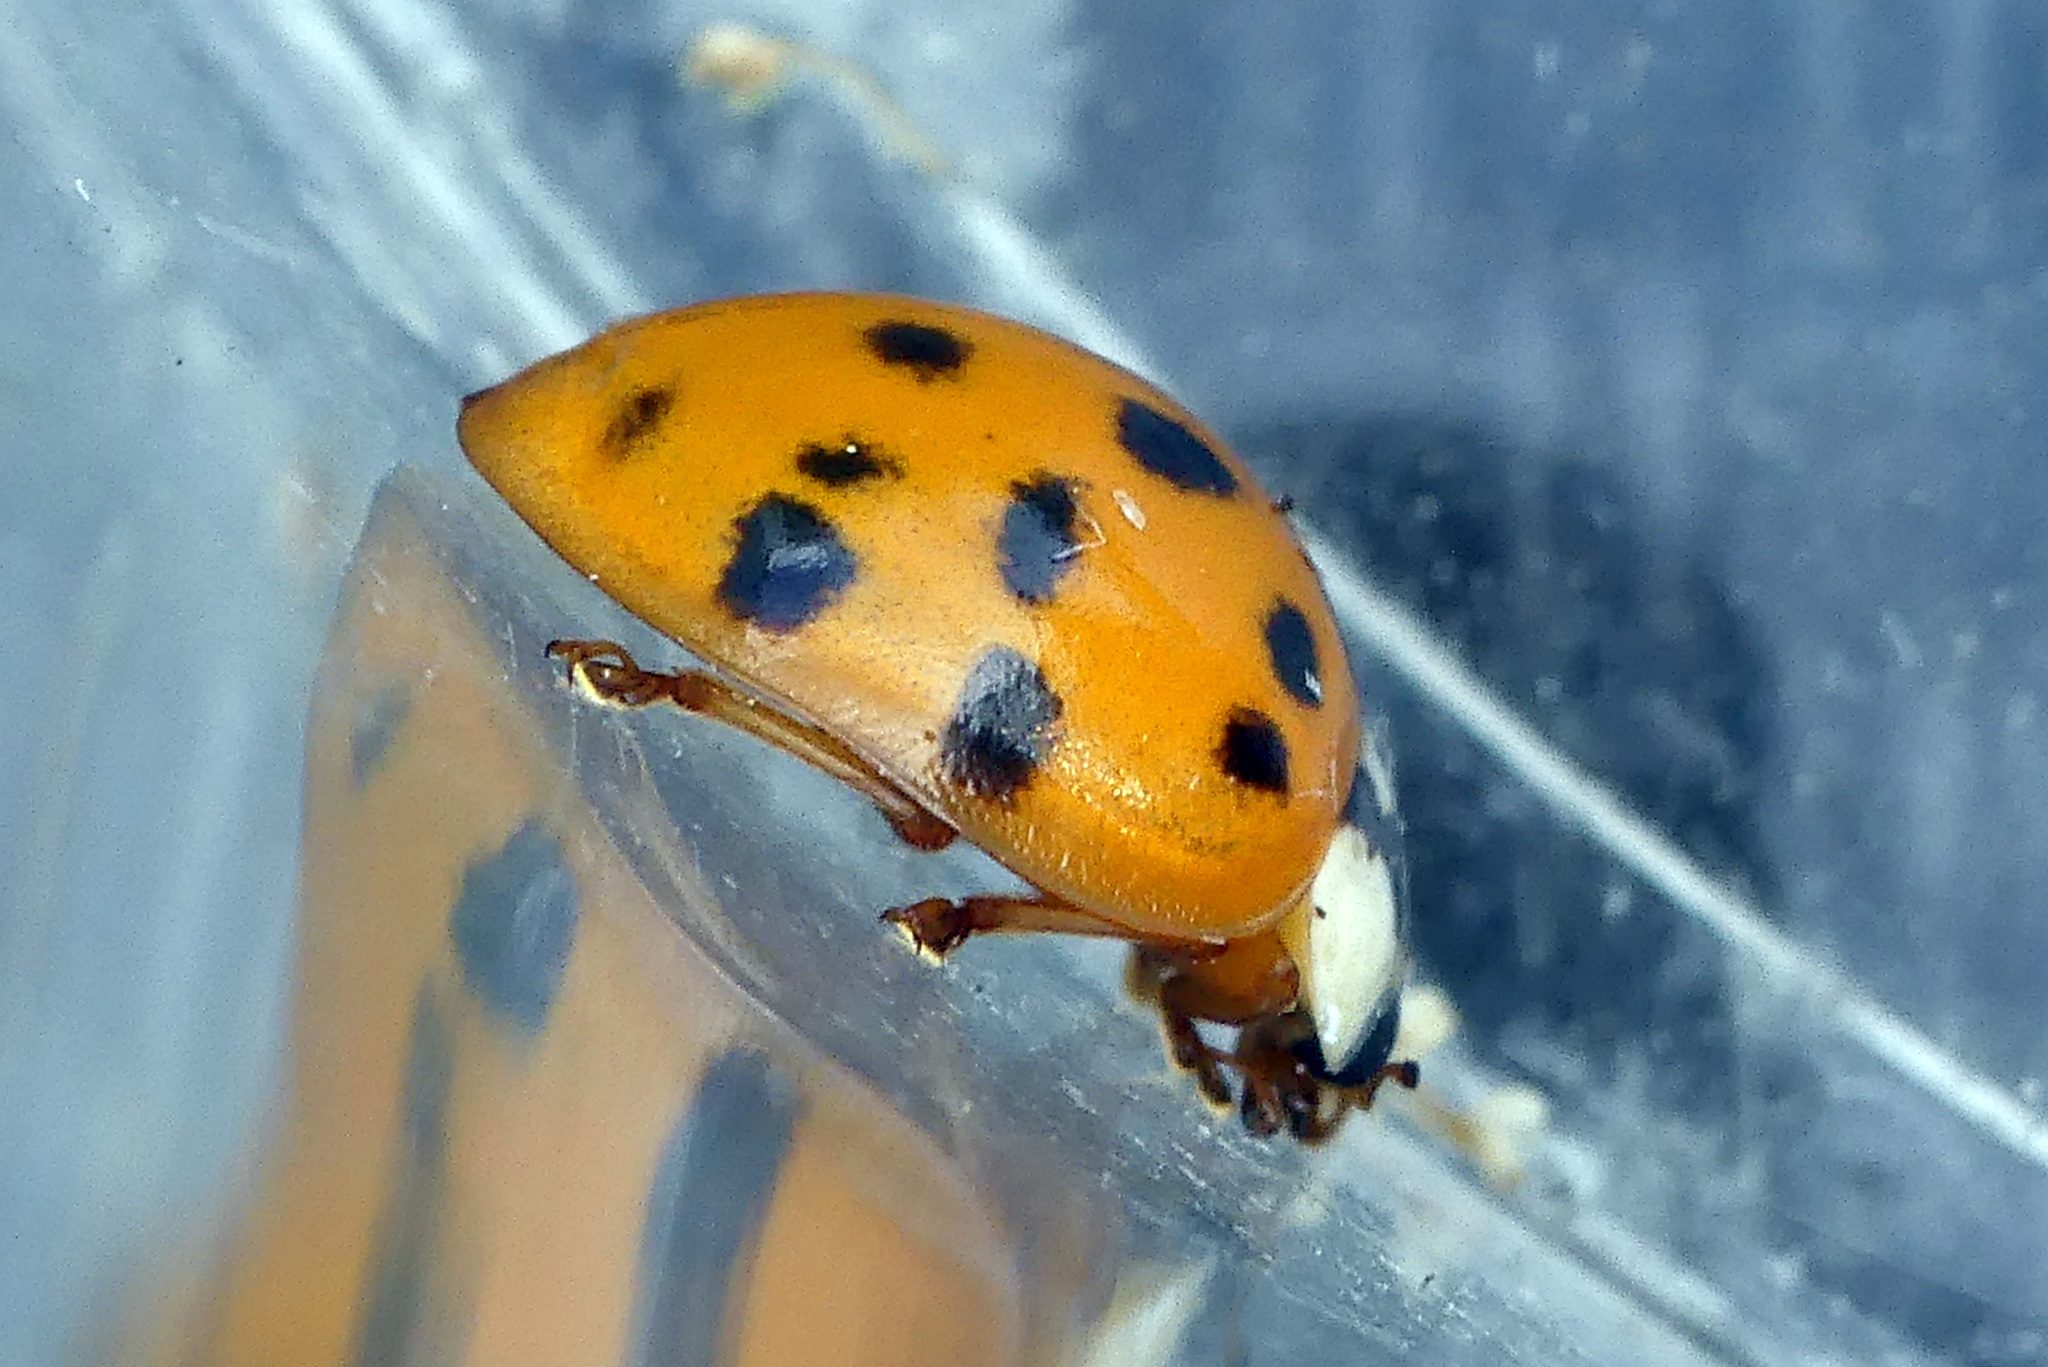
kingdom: Animalia
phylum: Arthropoda
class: Insecta
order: Coleoptera
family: Coccinellidae
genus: Harmonia
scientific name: Harmonia axyridis
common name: Harlequin ladybird
